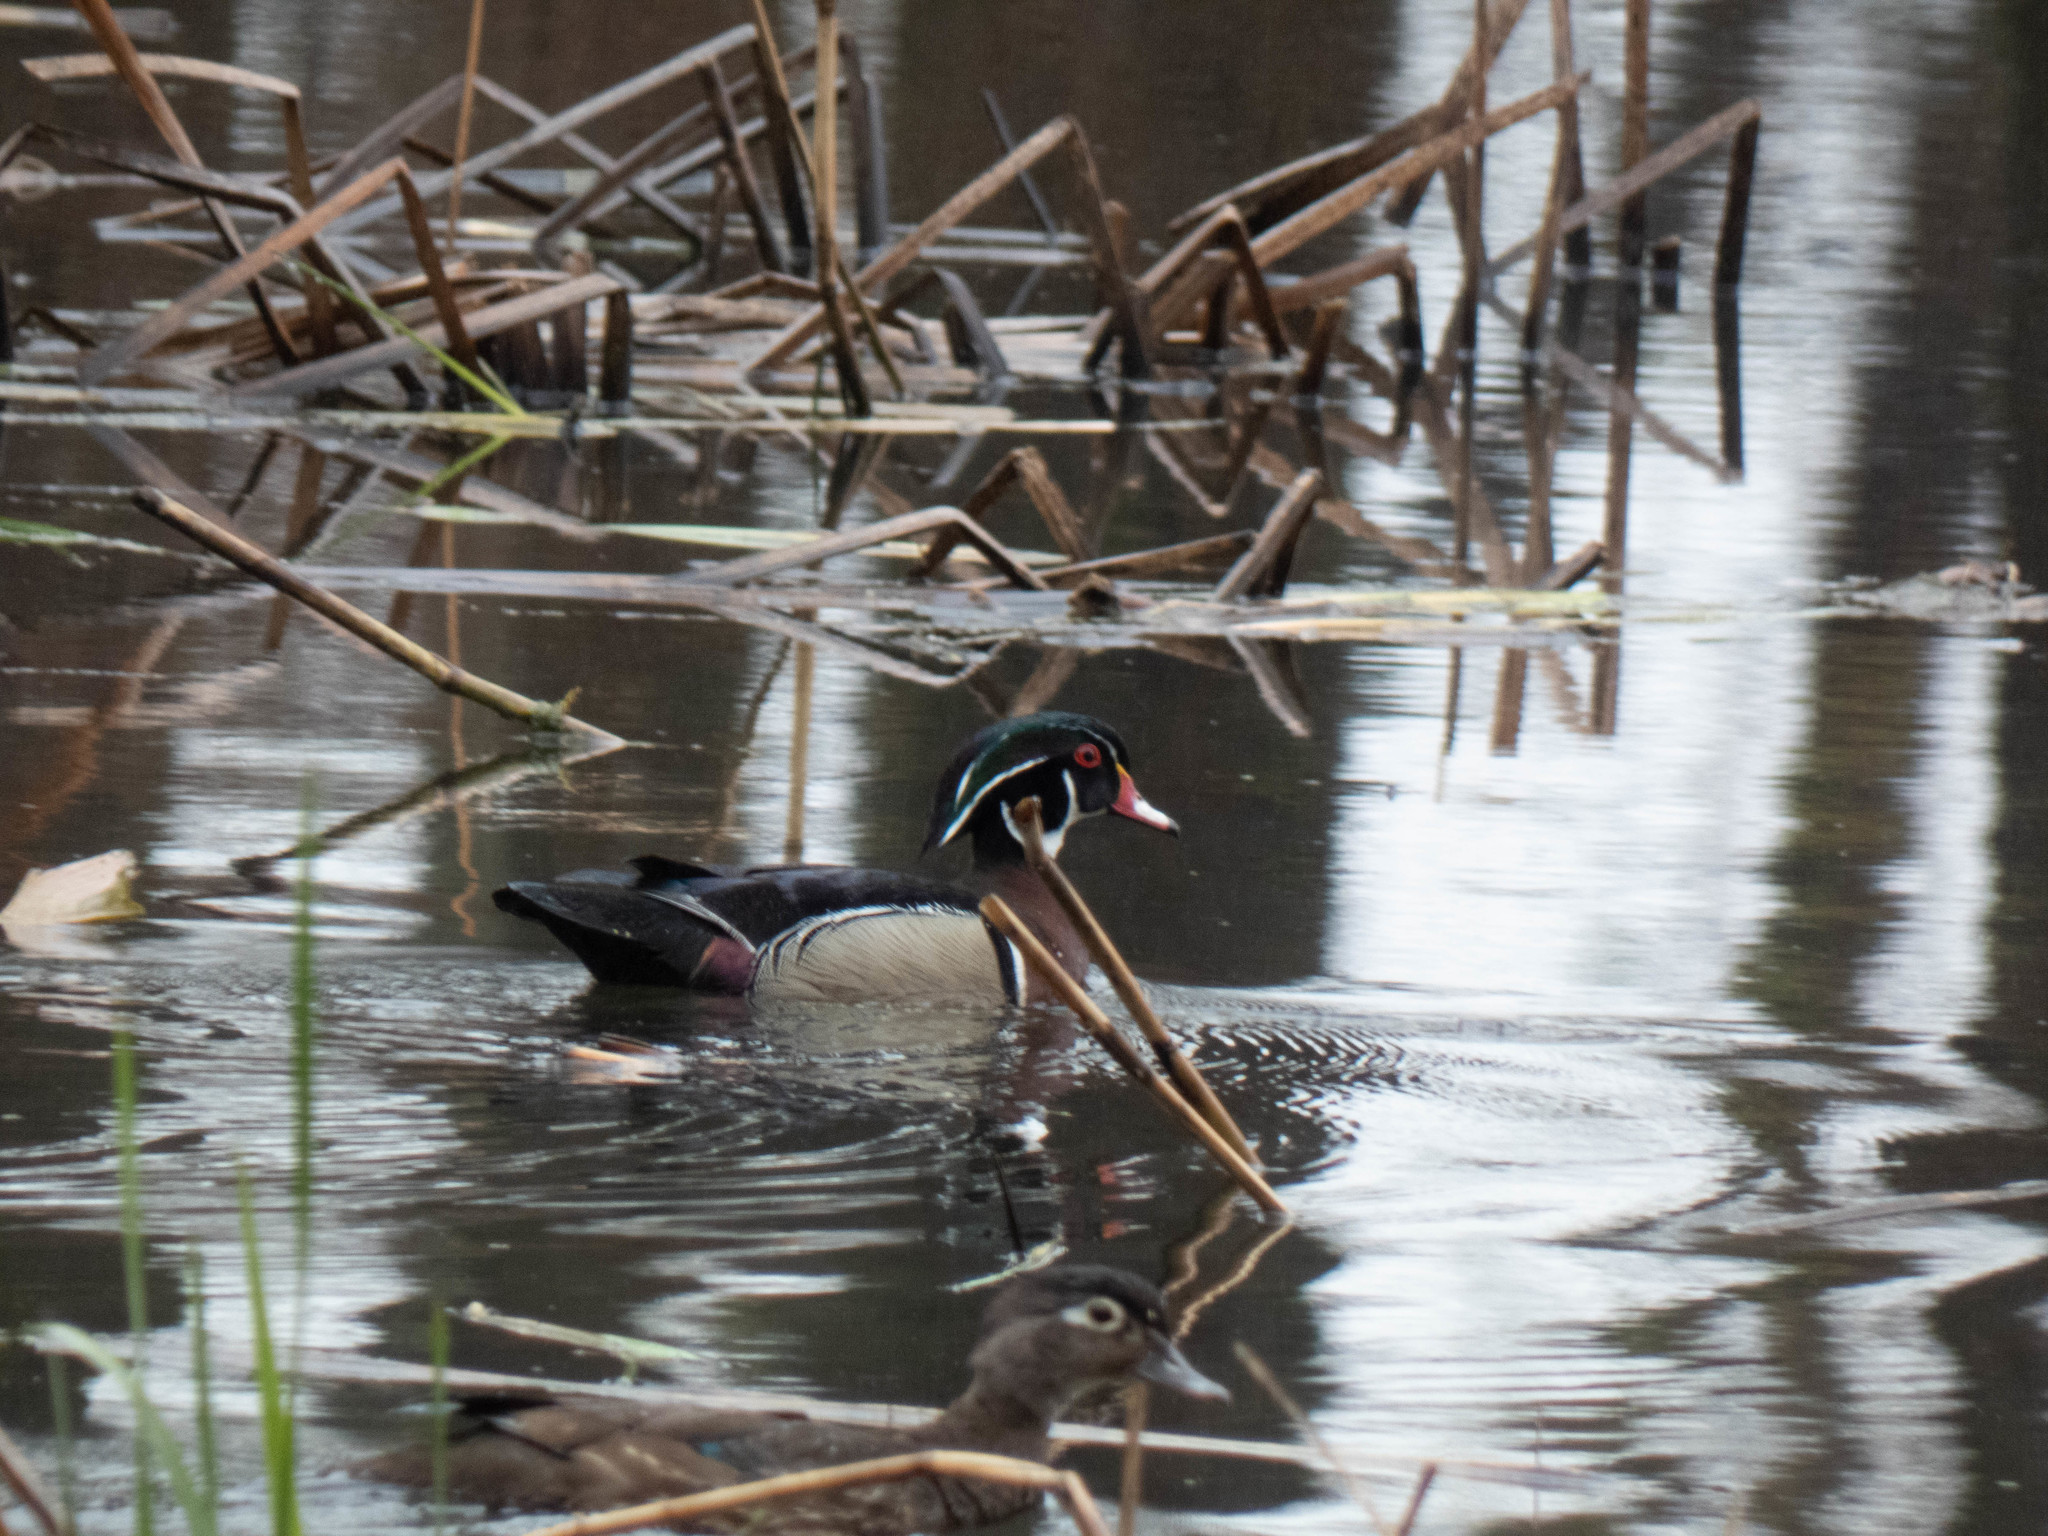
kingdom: Animalia
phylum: Chordata
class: Aves
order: Anseriformes
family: Anatidae
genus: Aix
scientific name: Aix sponsa
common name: Wood duck
